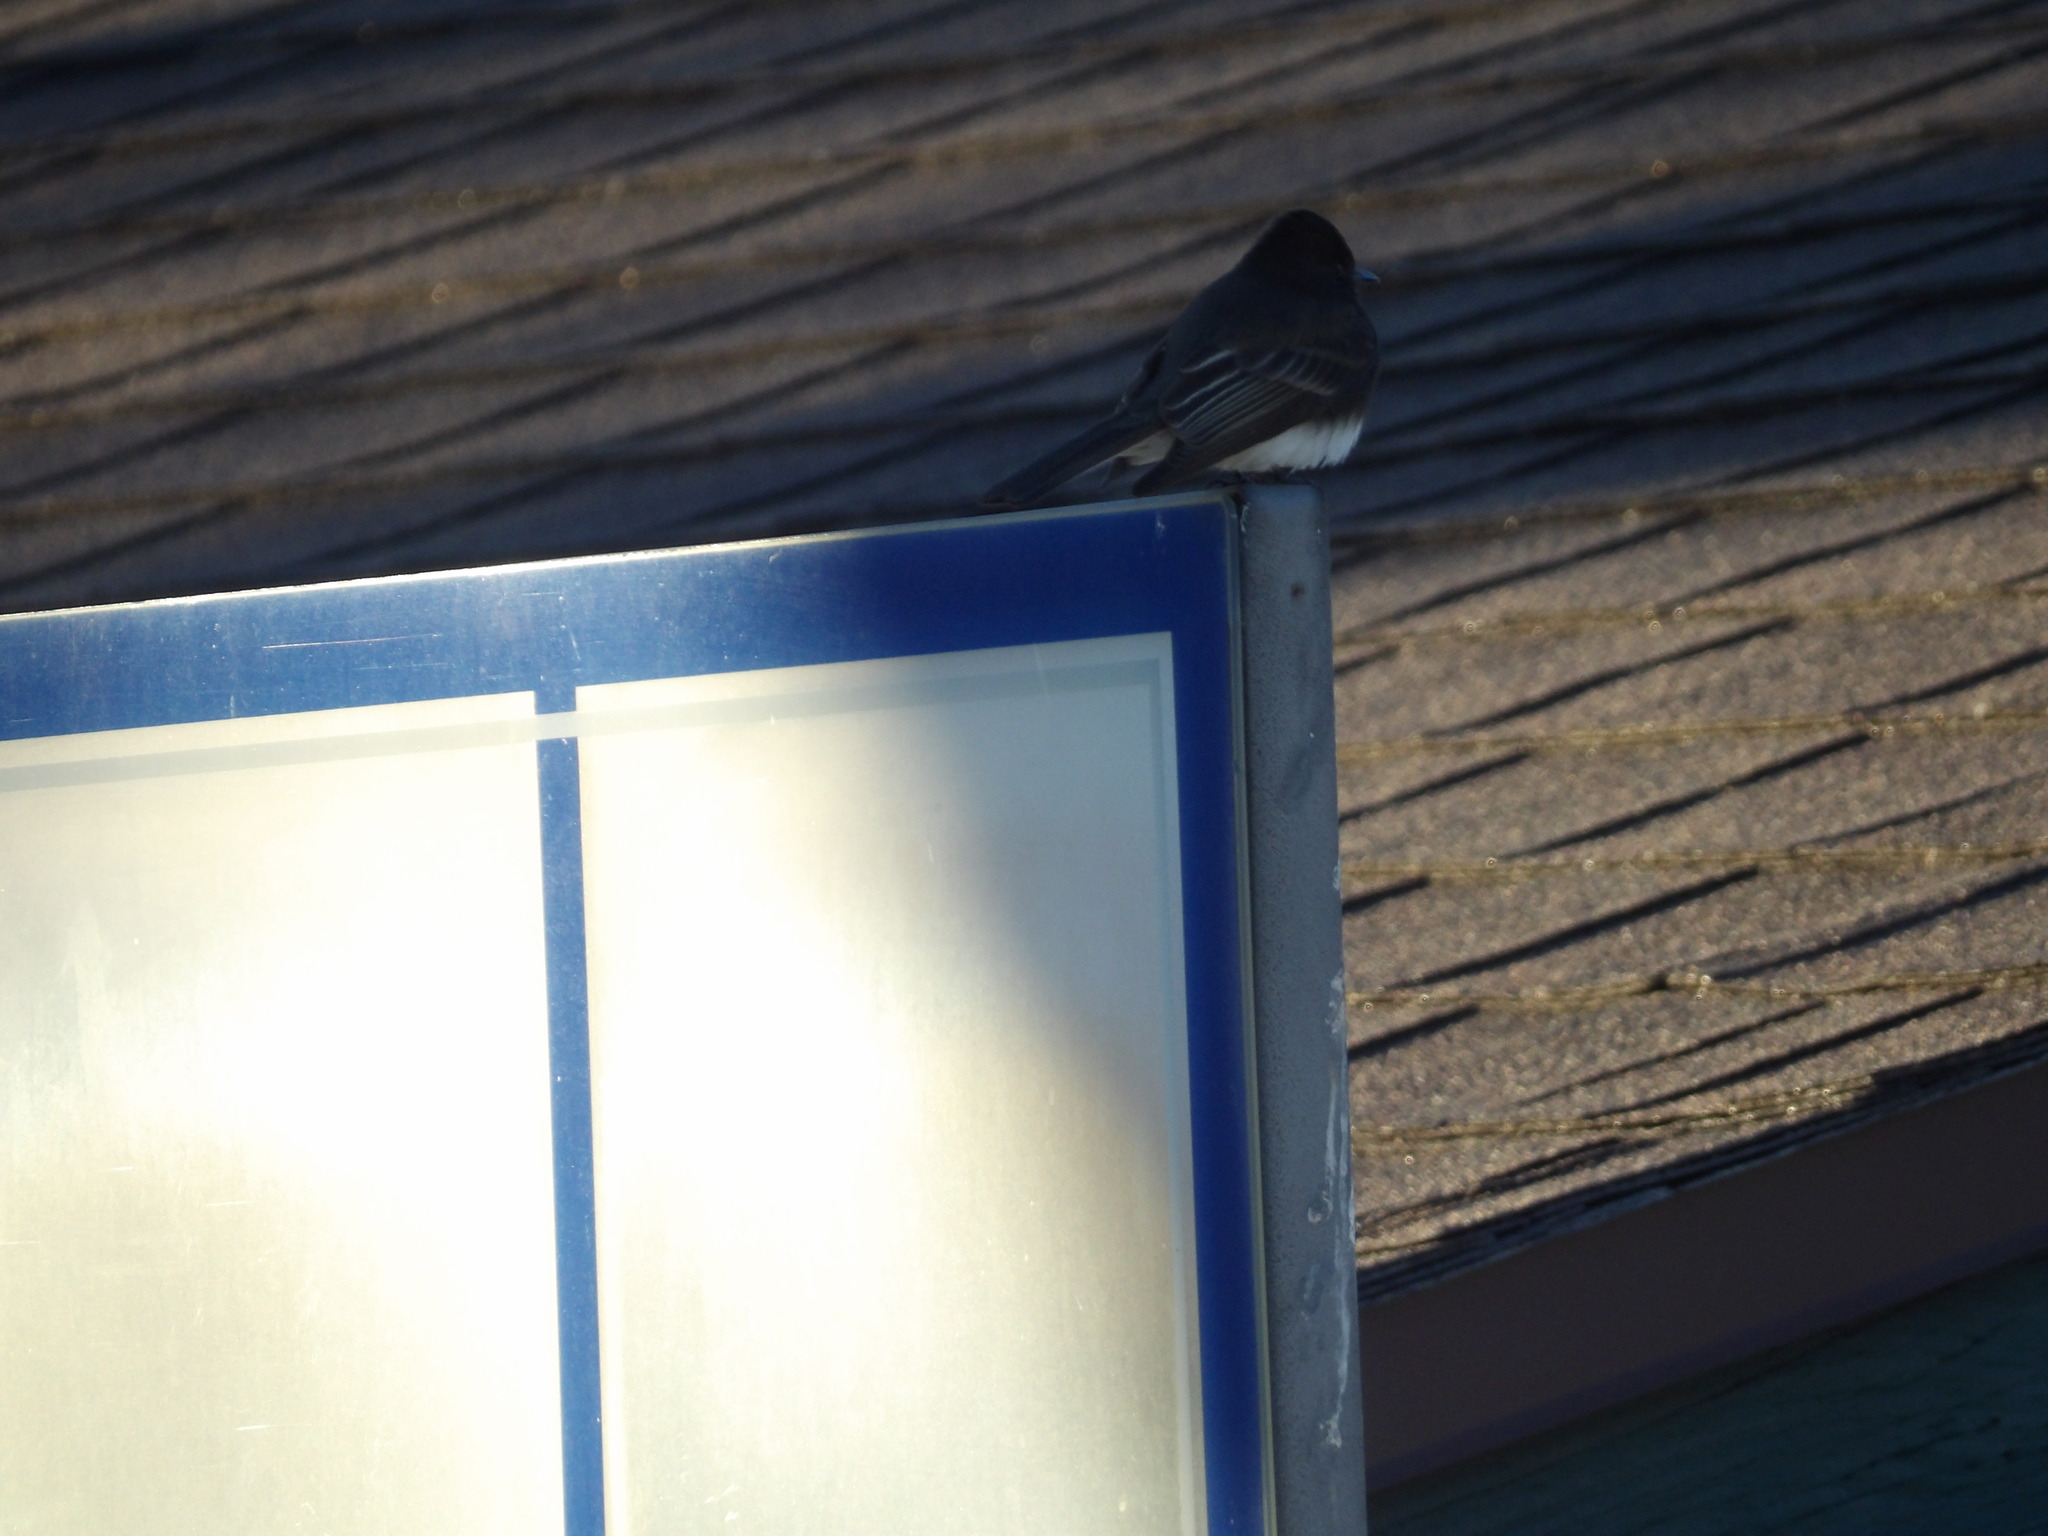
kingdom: Animalia
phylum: Chordata
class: Aves
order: Passeriformes
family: Tyrannidae
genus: Sayornis
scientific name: Sayornis nigricans
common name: Black phoebe
